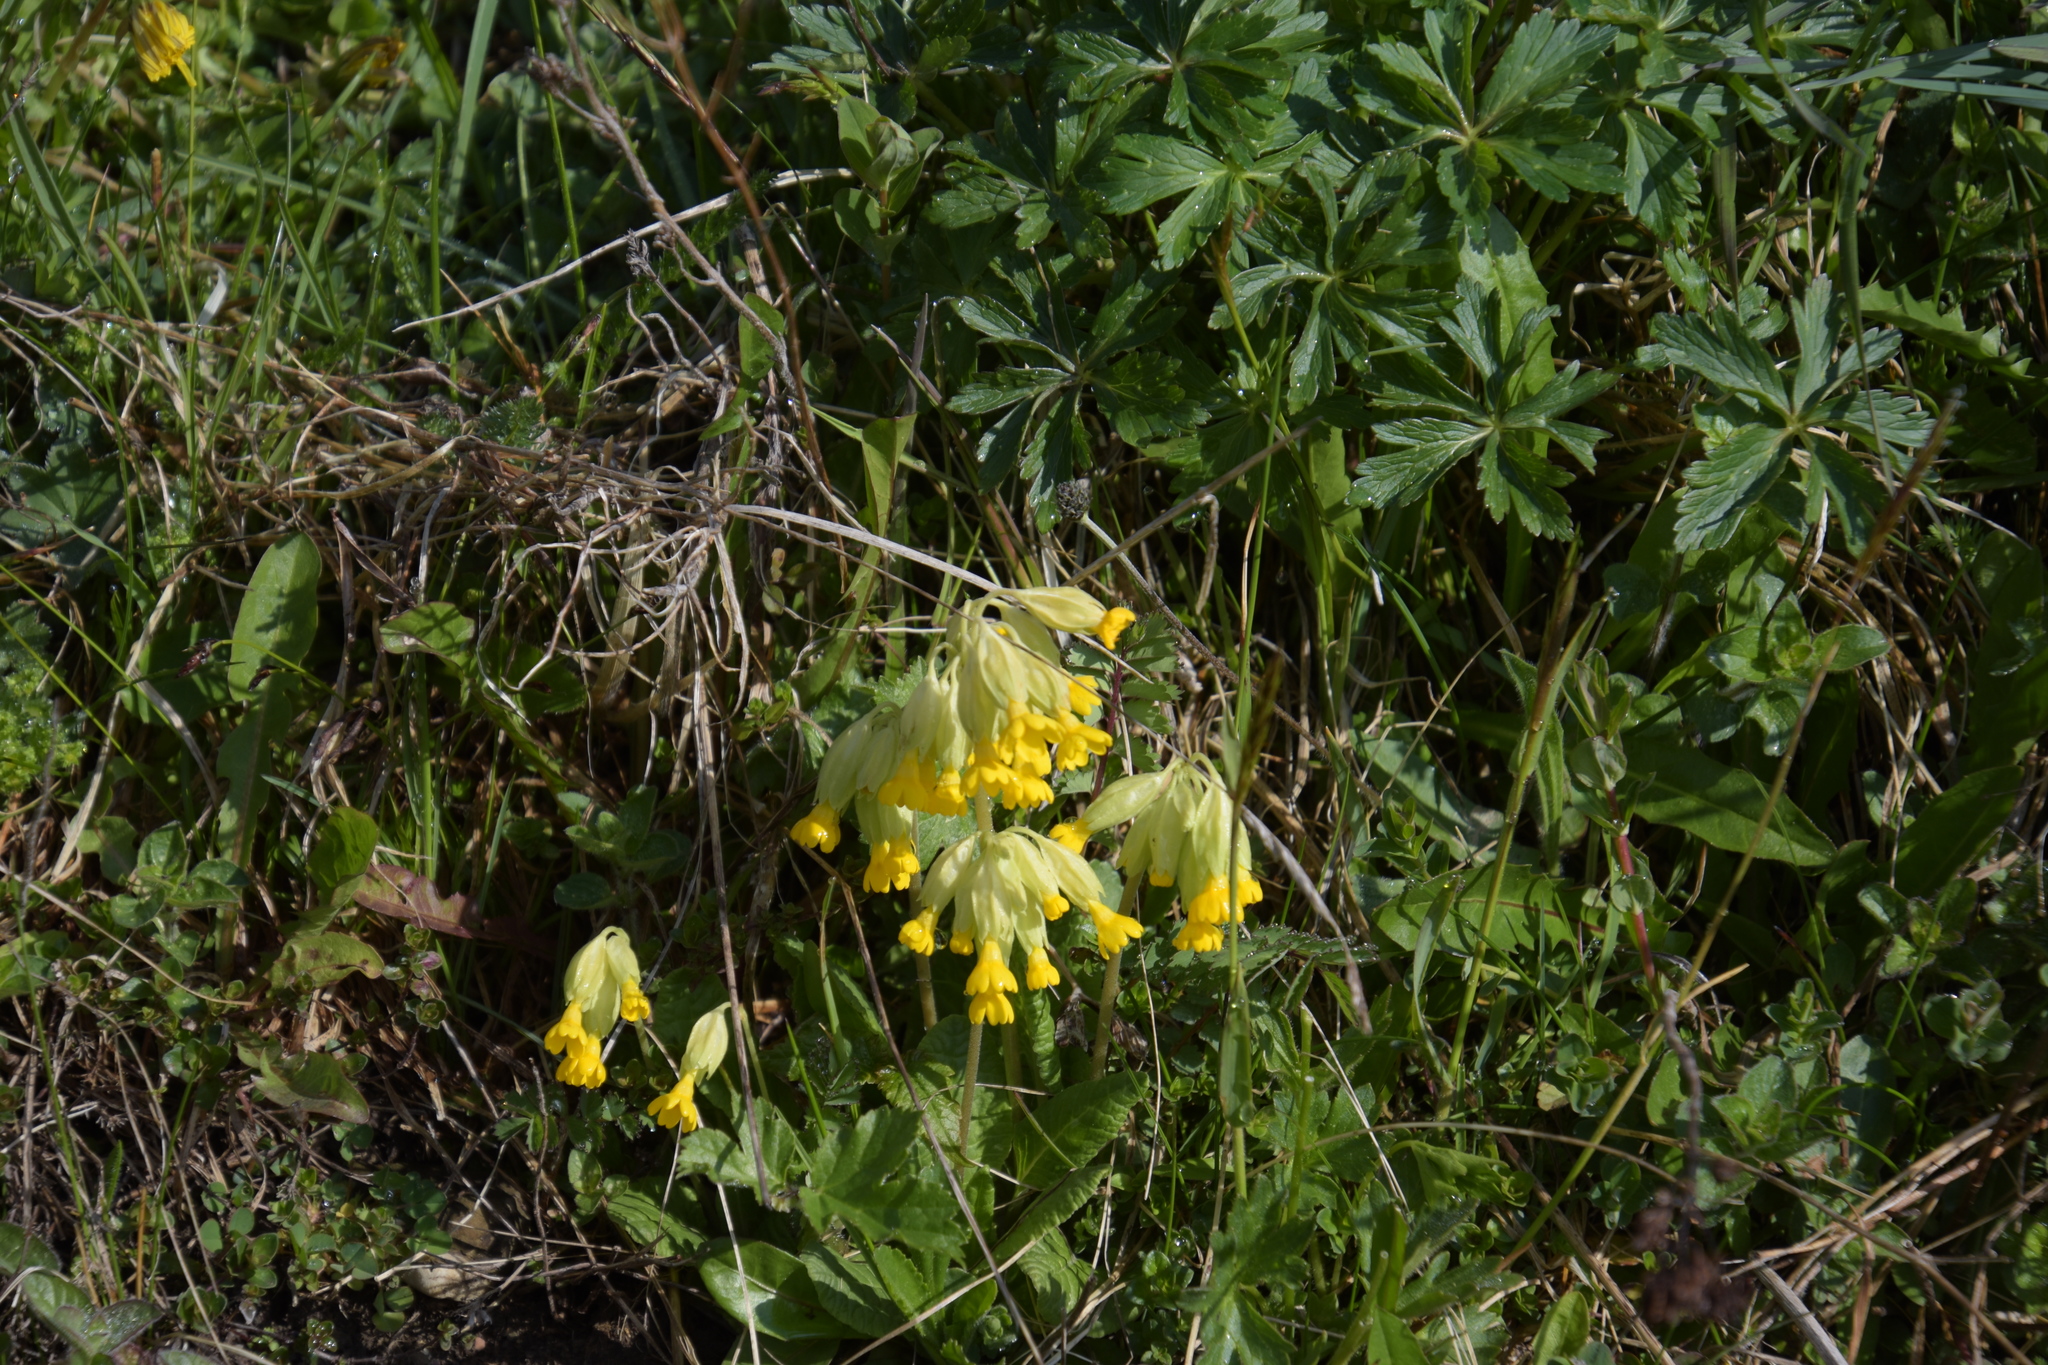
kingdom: Plantae
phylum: Tracheophyta
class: Magnoliopsida
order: Ericales
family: Primulaceae
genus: Primula
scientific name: Primula veris
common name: Cowslip
